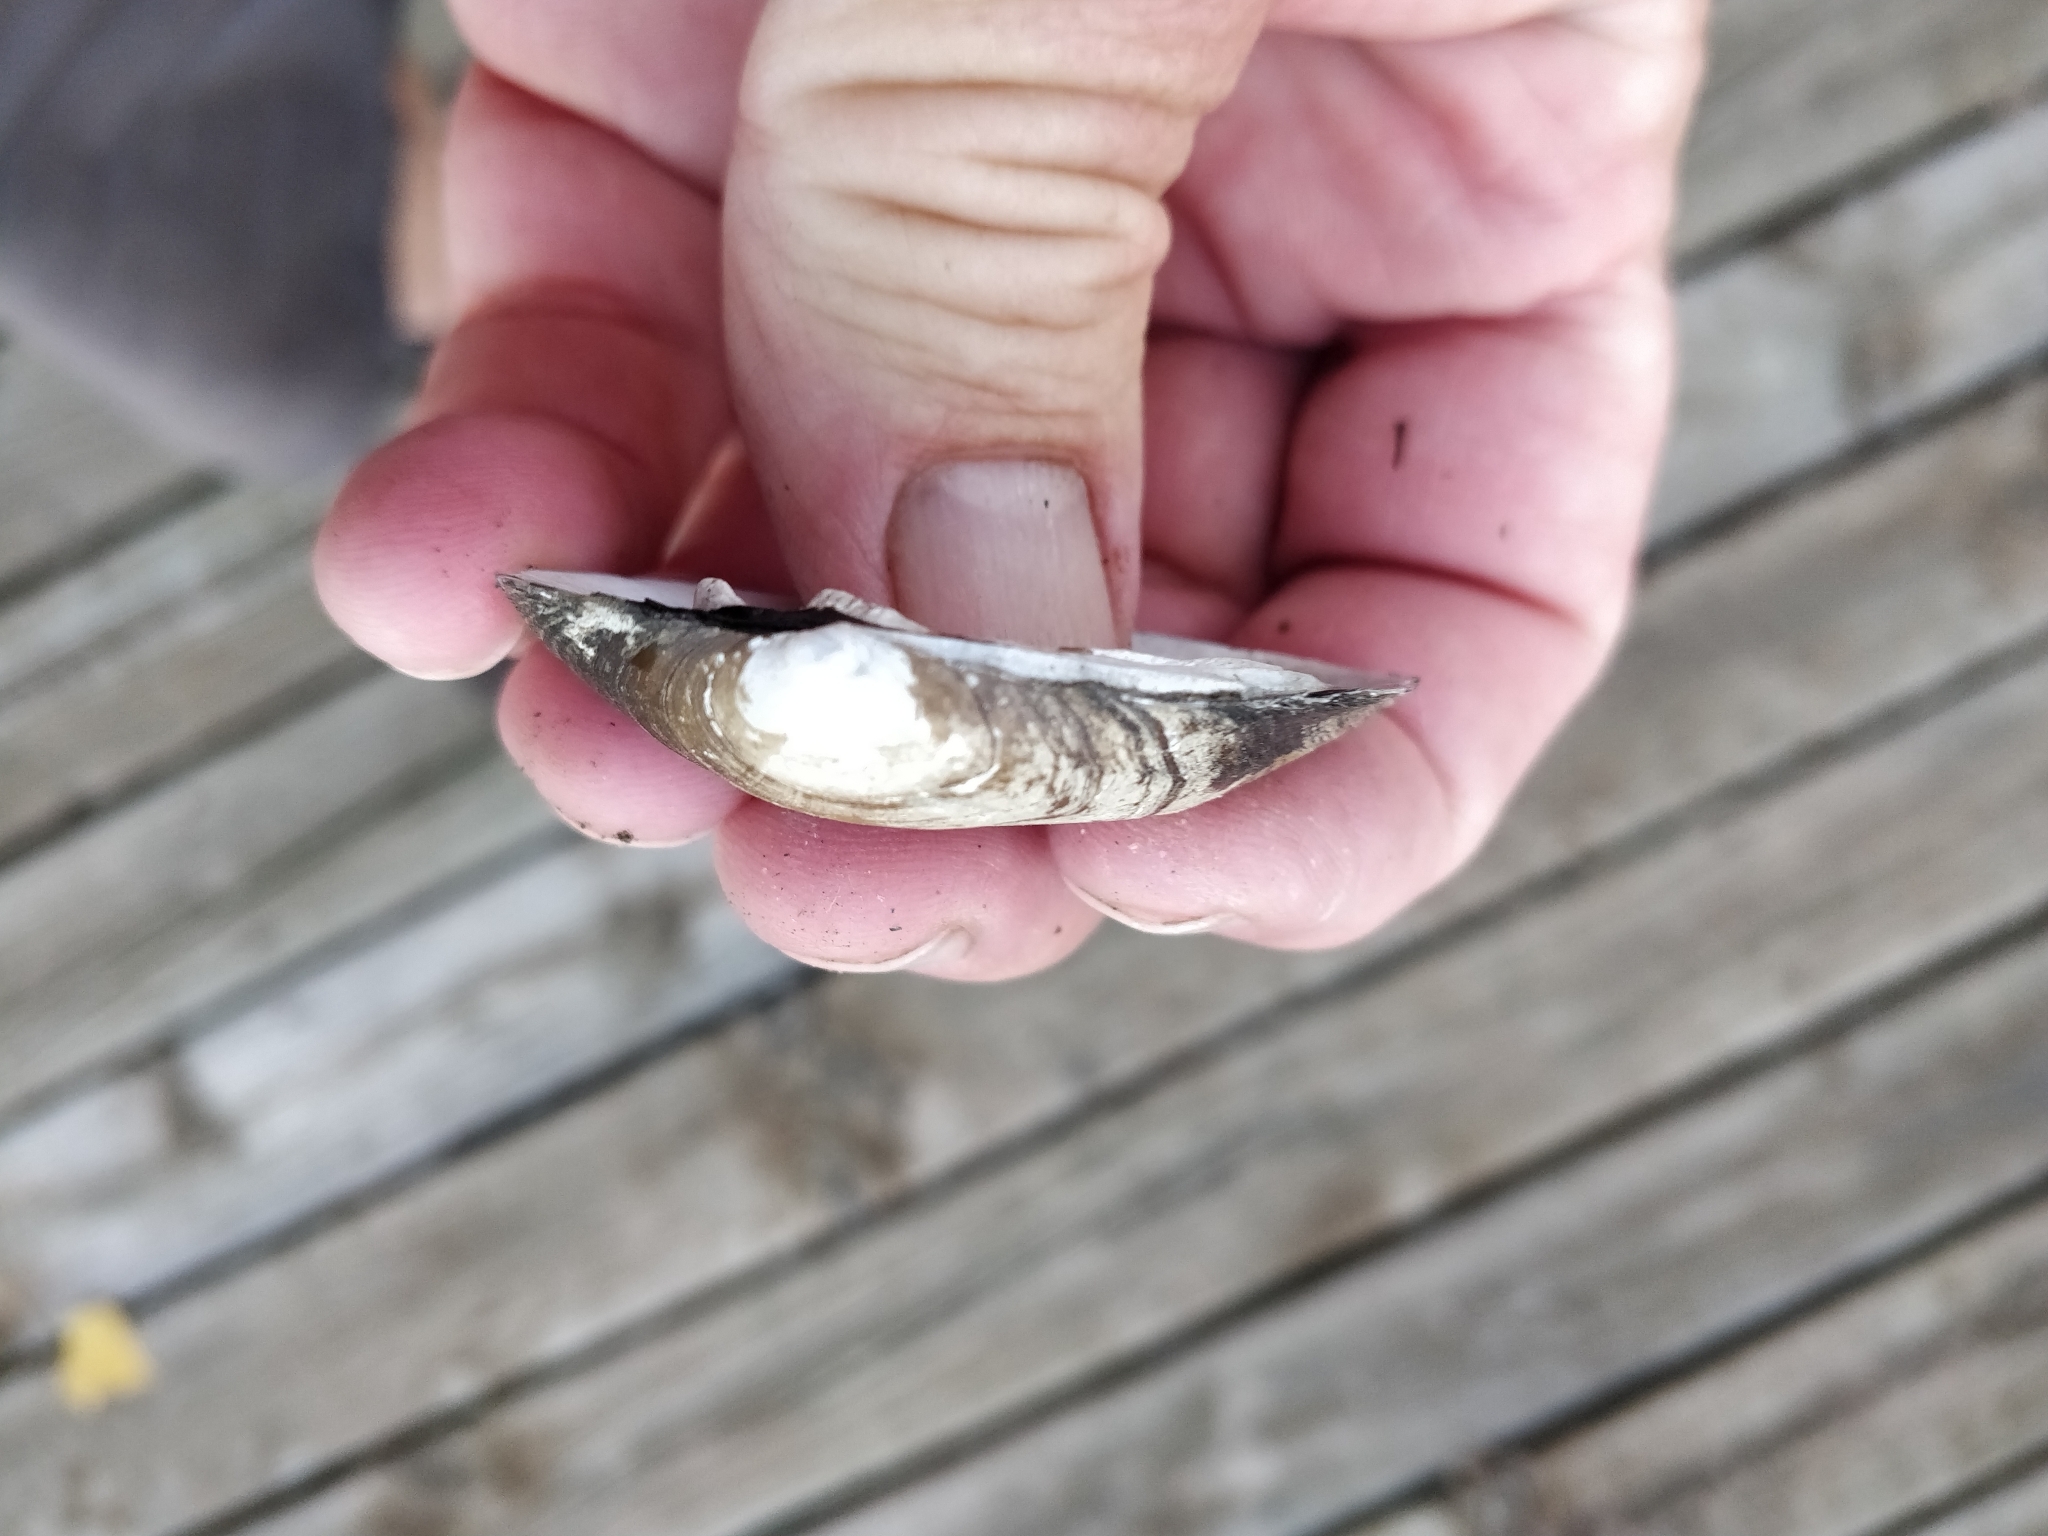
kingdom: Animalia
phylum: Mollusca
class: Bivalvia
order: Unionida
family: Unionidae
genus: Fusconaia
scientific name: Fusconaia flava
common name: Wabash pigtoe
